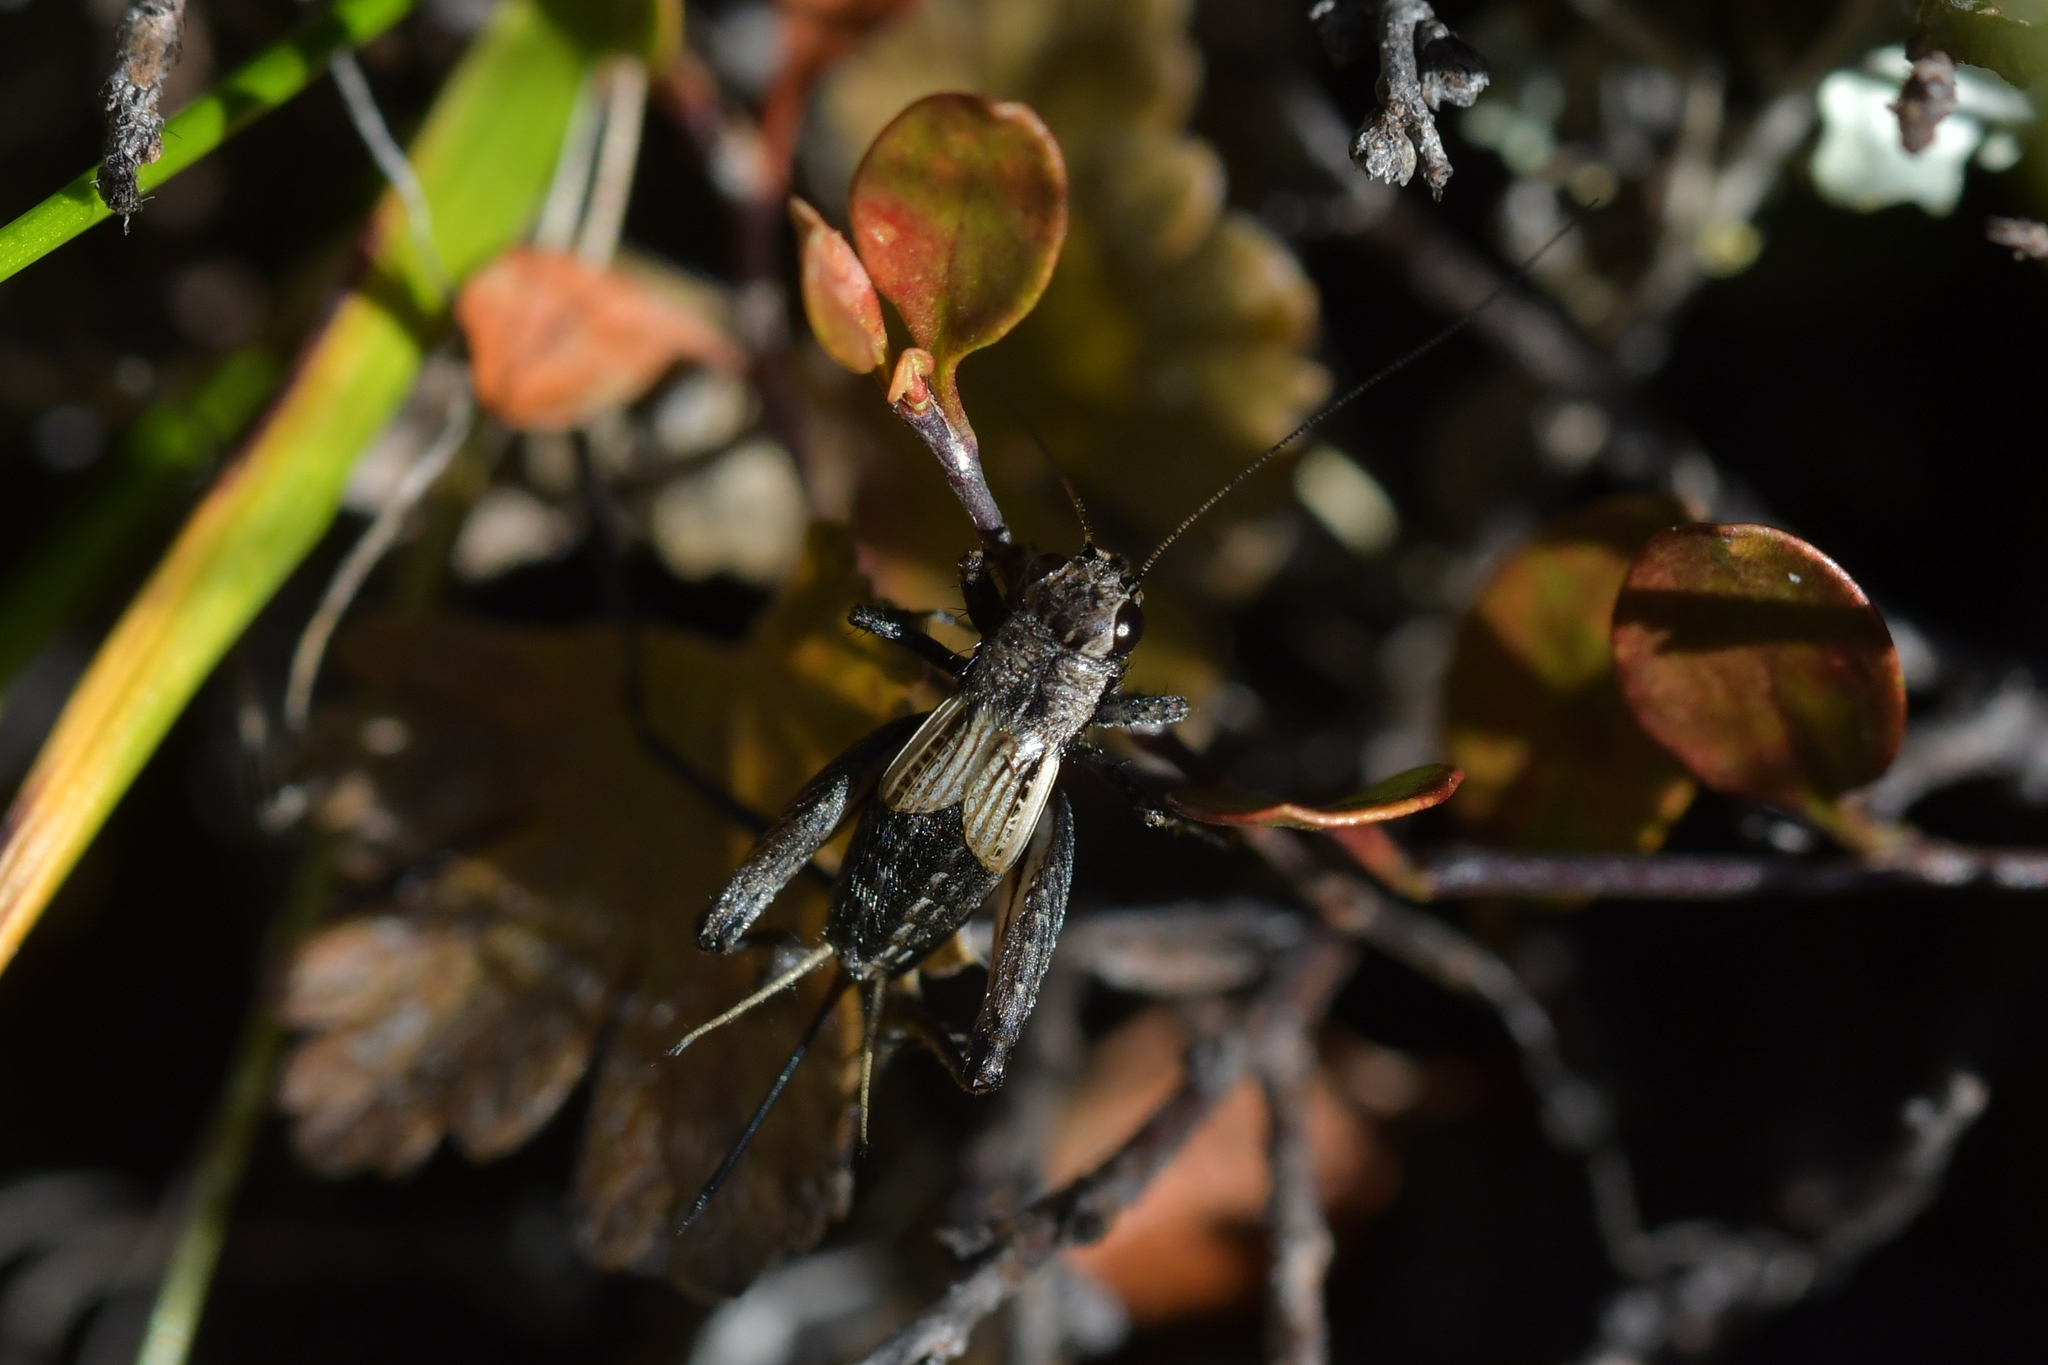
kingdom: Animalia
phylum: Arthropoda
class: Insecta
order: Orthoptera
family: Trigonidiidae
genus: Bobilla
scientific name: Bobilla nigrovus
